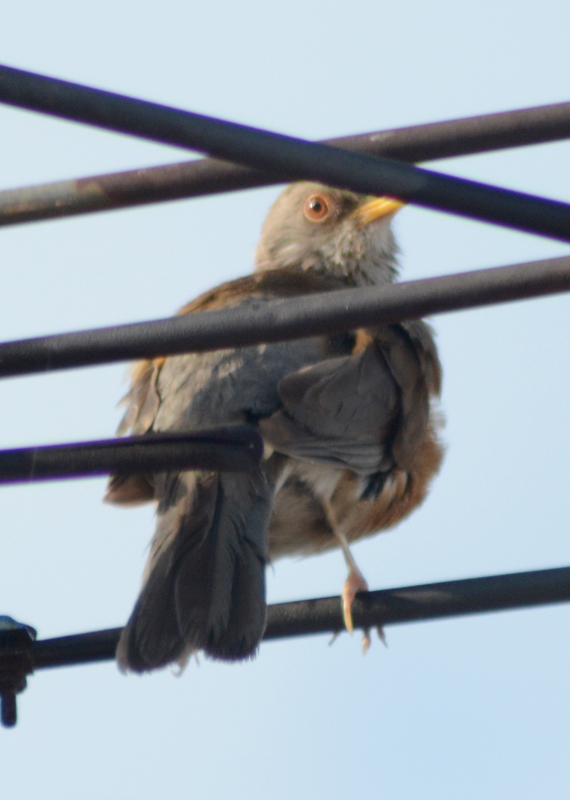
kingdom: Animalia
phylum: Chordata
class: Aves
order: Passeriformes
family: Turdidae
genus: Turdus
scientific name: Turdus rufopalliatus
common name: Rufous-backed robin
